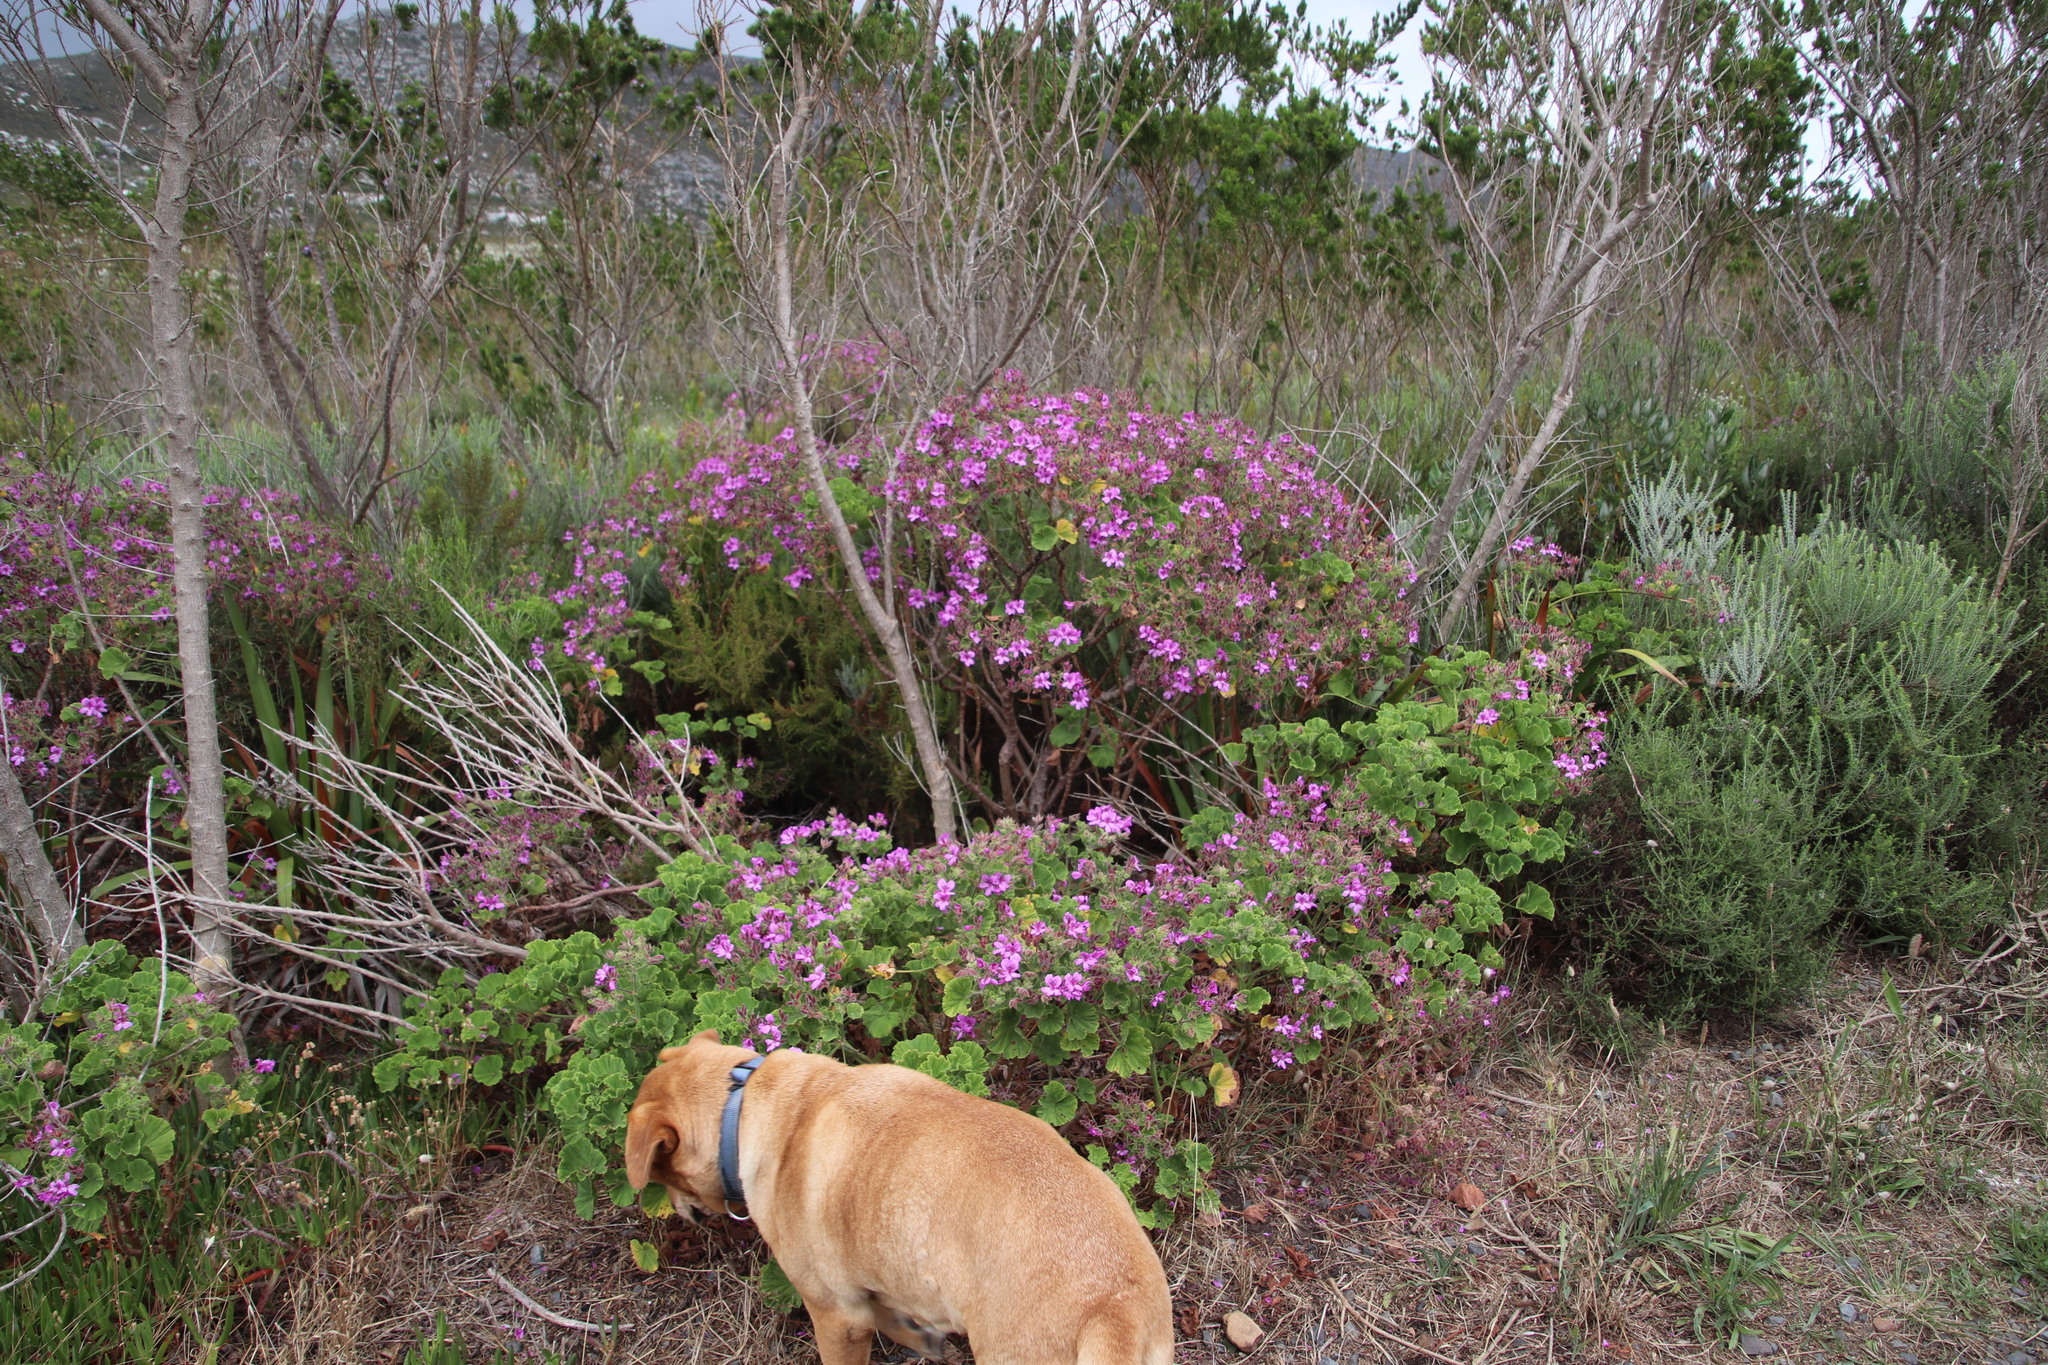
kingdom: Plantae
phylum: Tracheophyta
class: Magnoliopsida
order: Geraniales
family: Geraniaceae
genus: Pelargonium
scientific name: Pelargonium cucullatum
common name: Tree pelargonium
